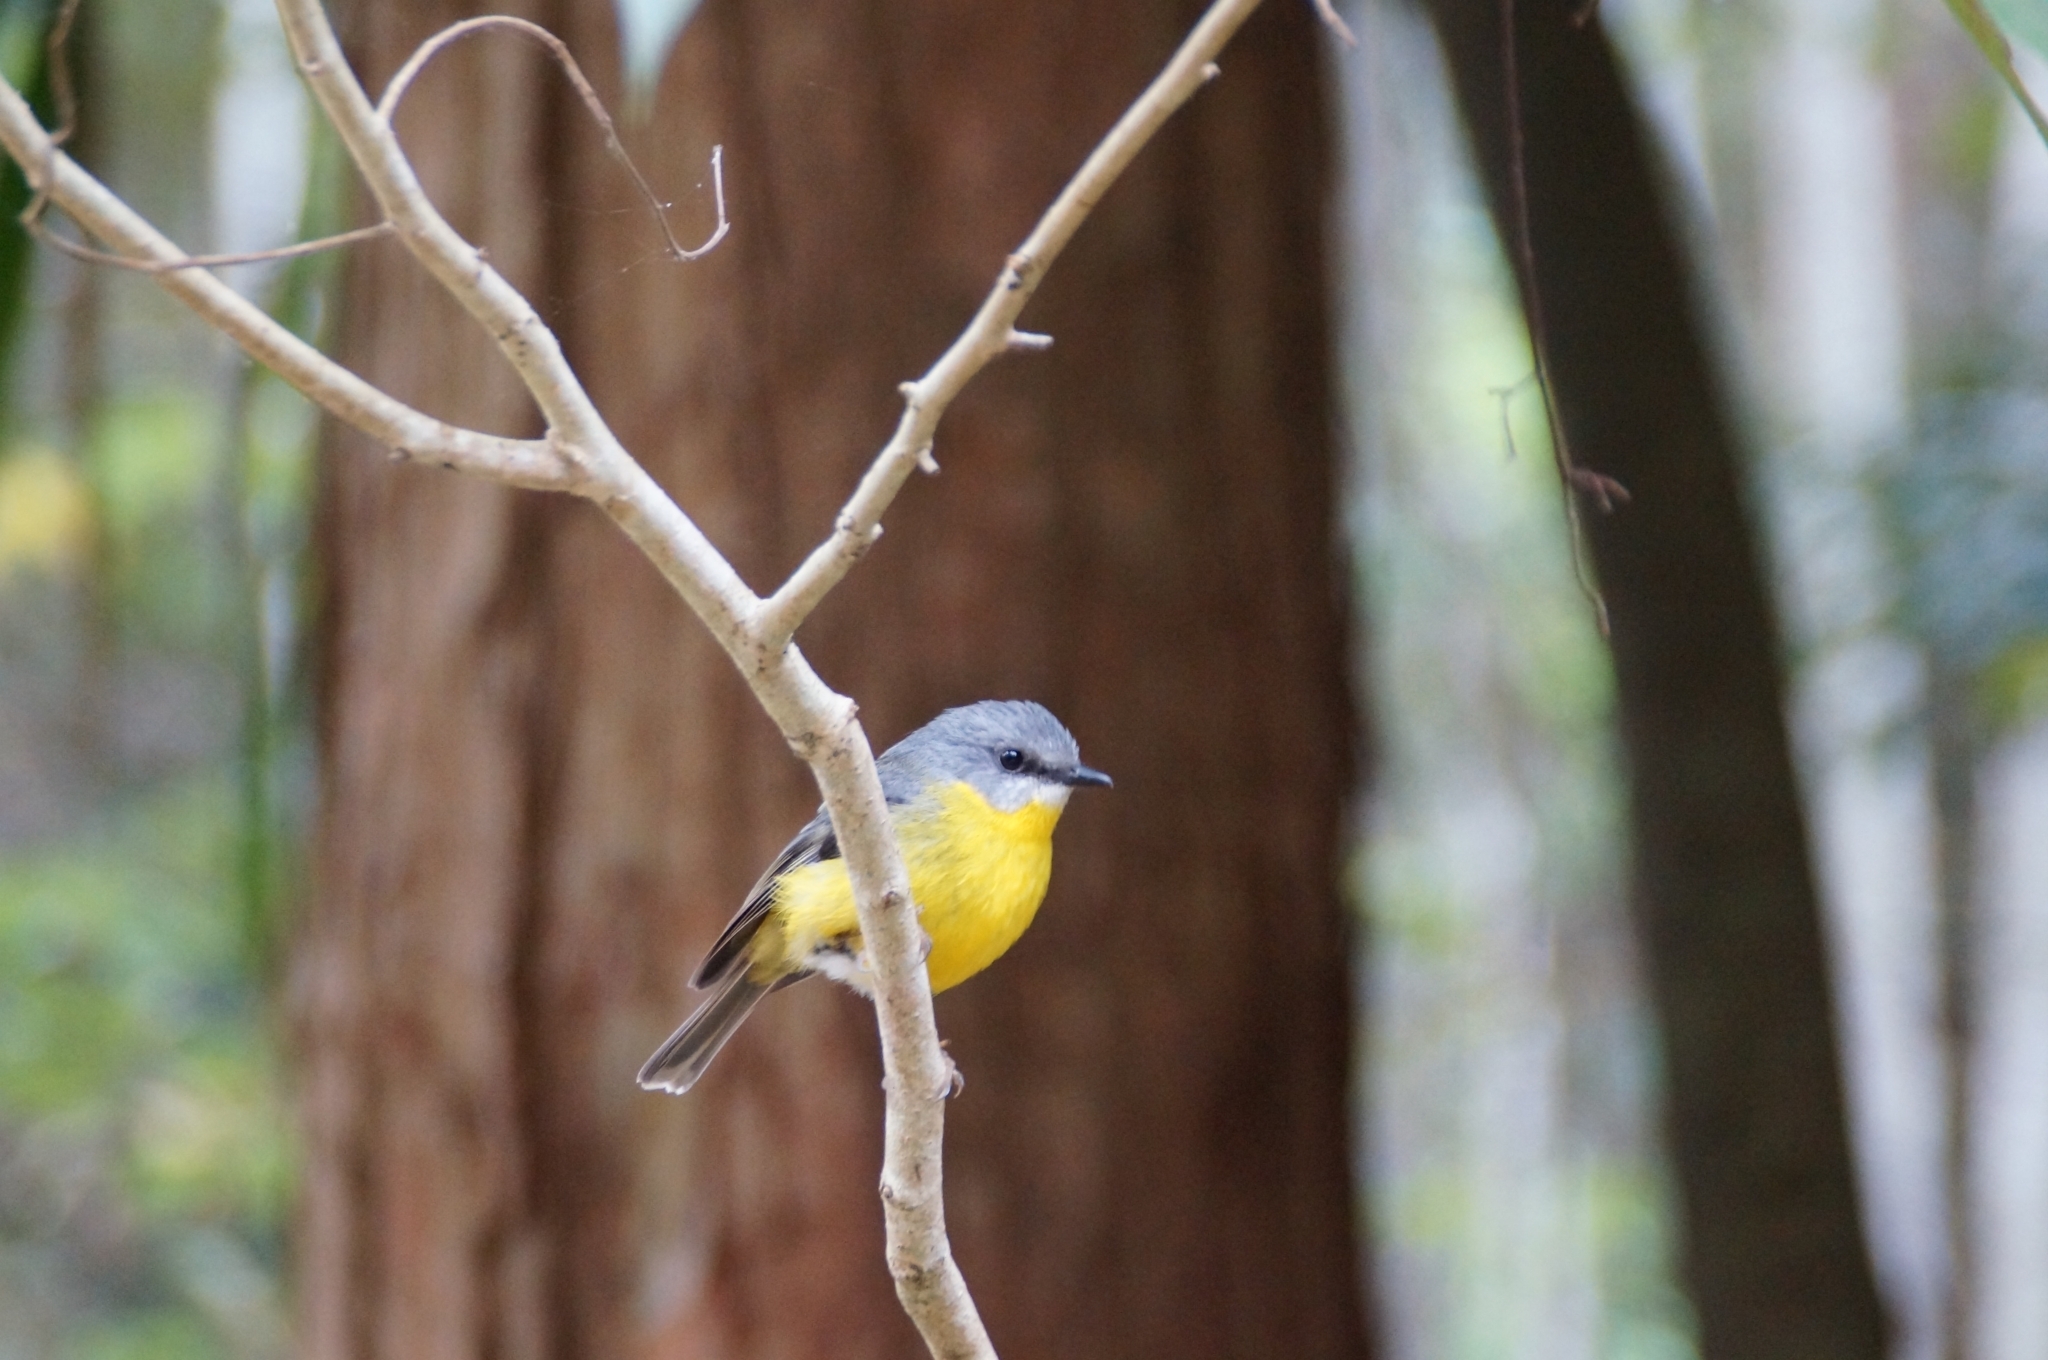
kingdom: Animalia
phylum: Chordata
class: Aves
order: Passeriformes
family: Petroicidae
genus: Eopsaltria
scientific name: Eopsaltria australis
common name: Eastern yellow robin
